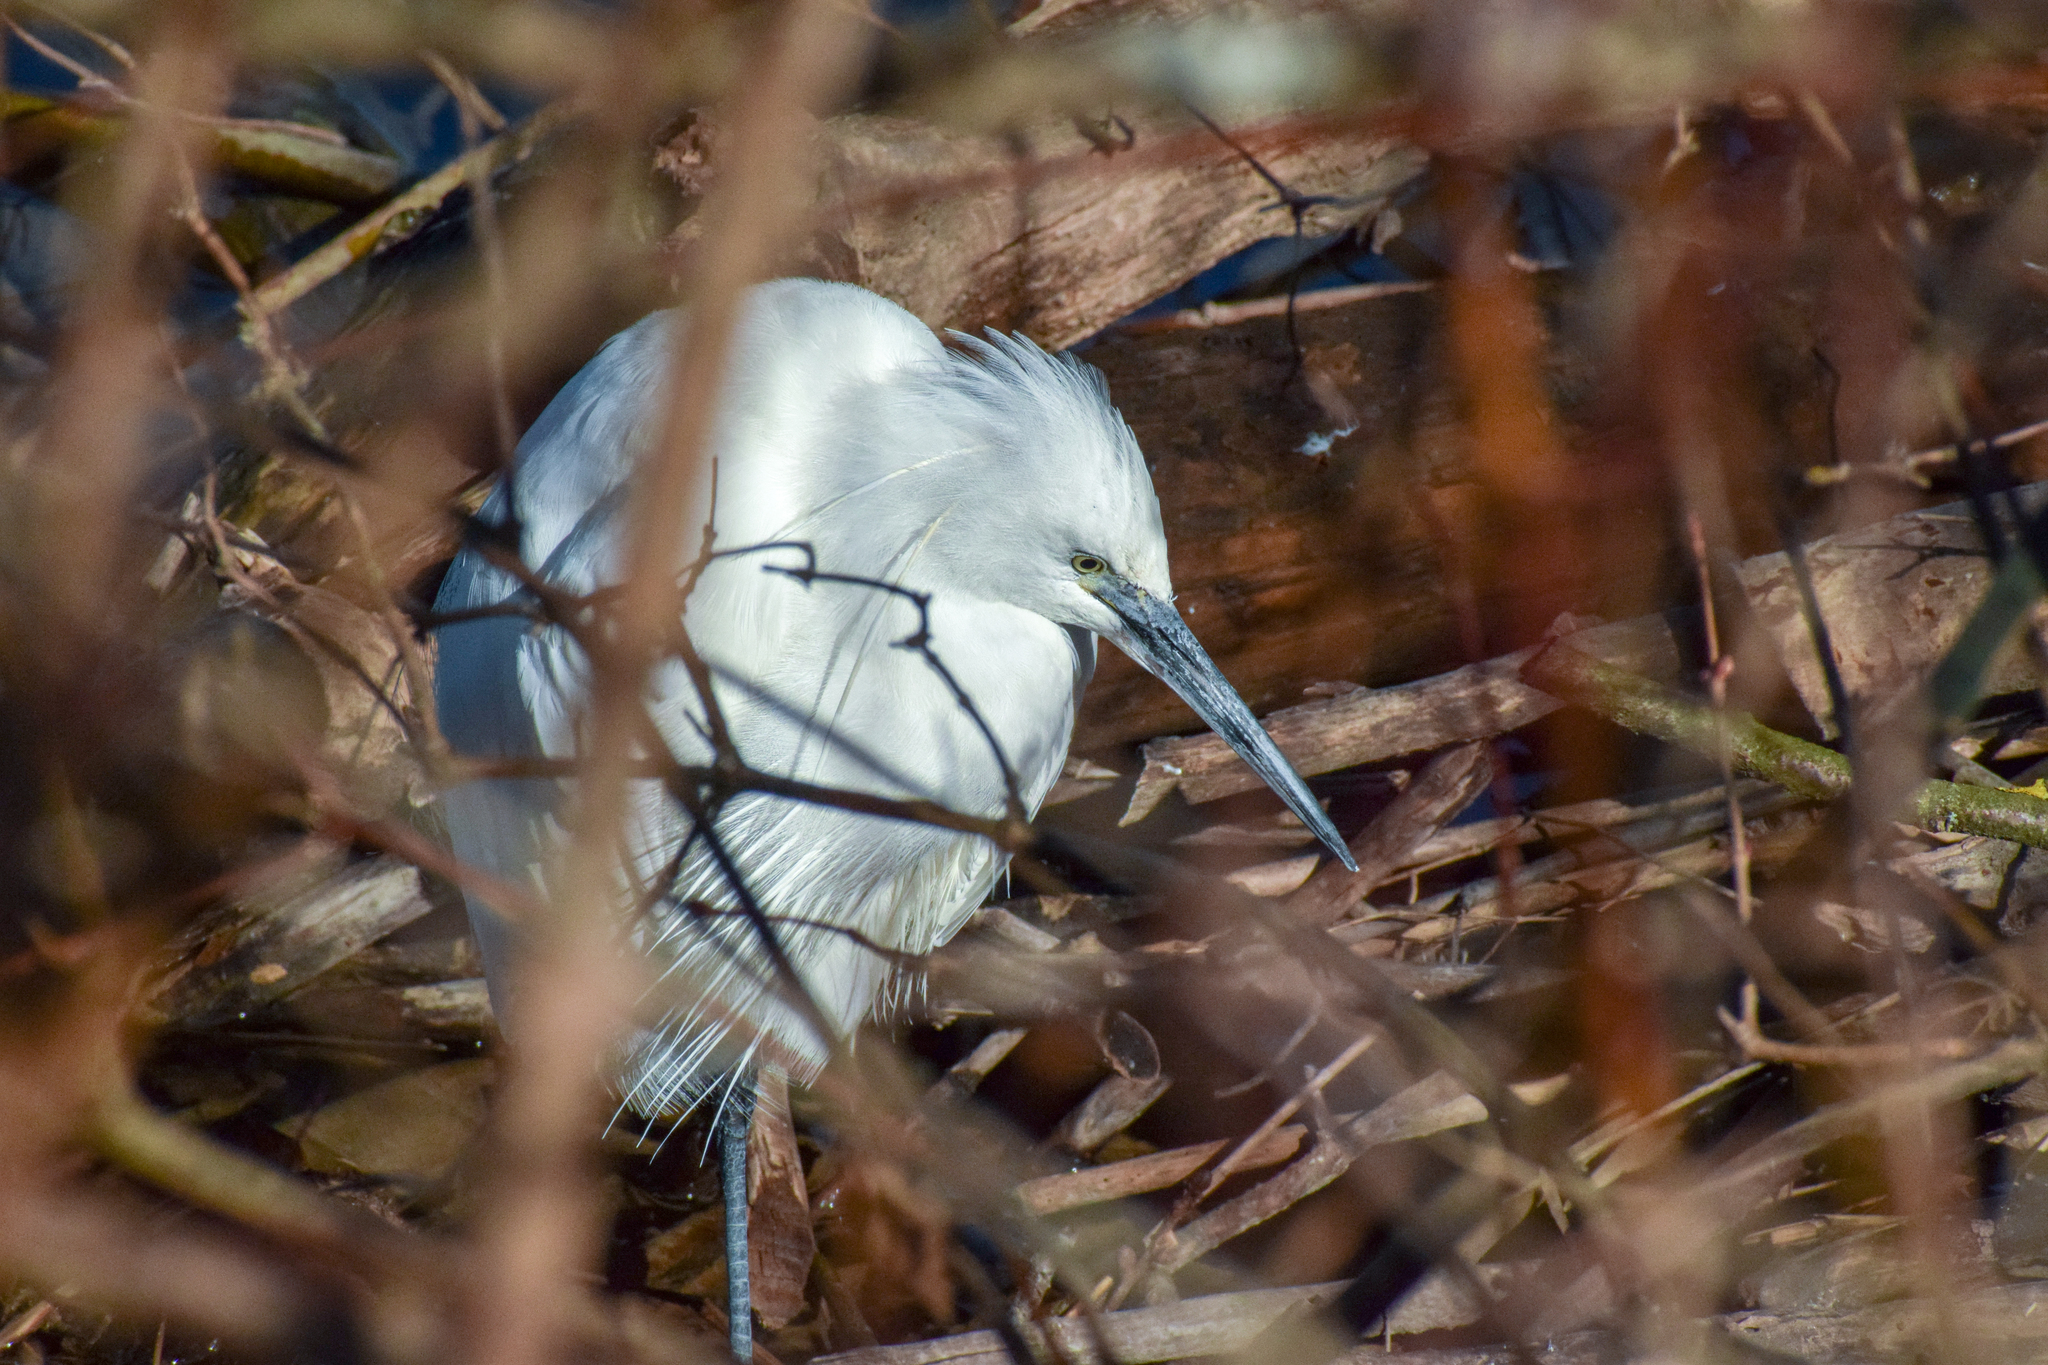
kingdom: Animalia
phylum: Chordata
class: Aves
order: Pelecaniformes
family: Ardeidae
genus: Egretta
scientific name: Egretta garzetta
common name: Little egret
